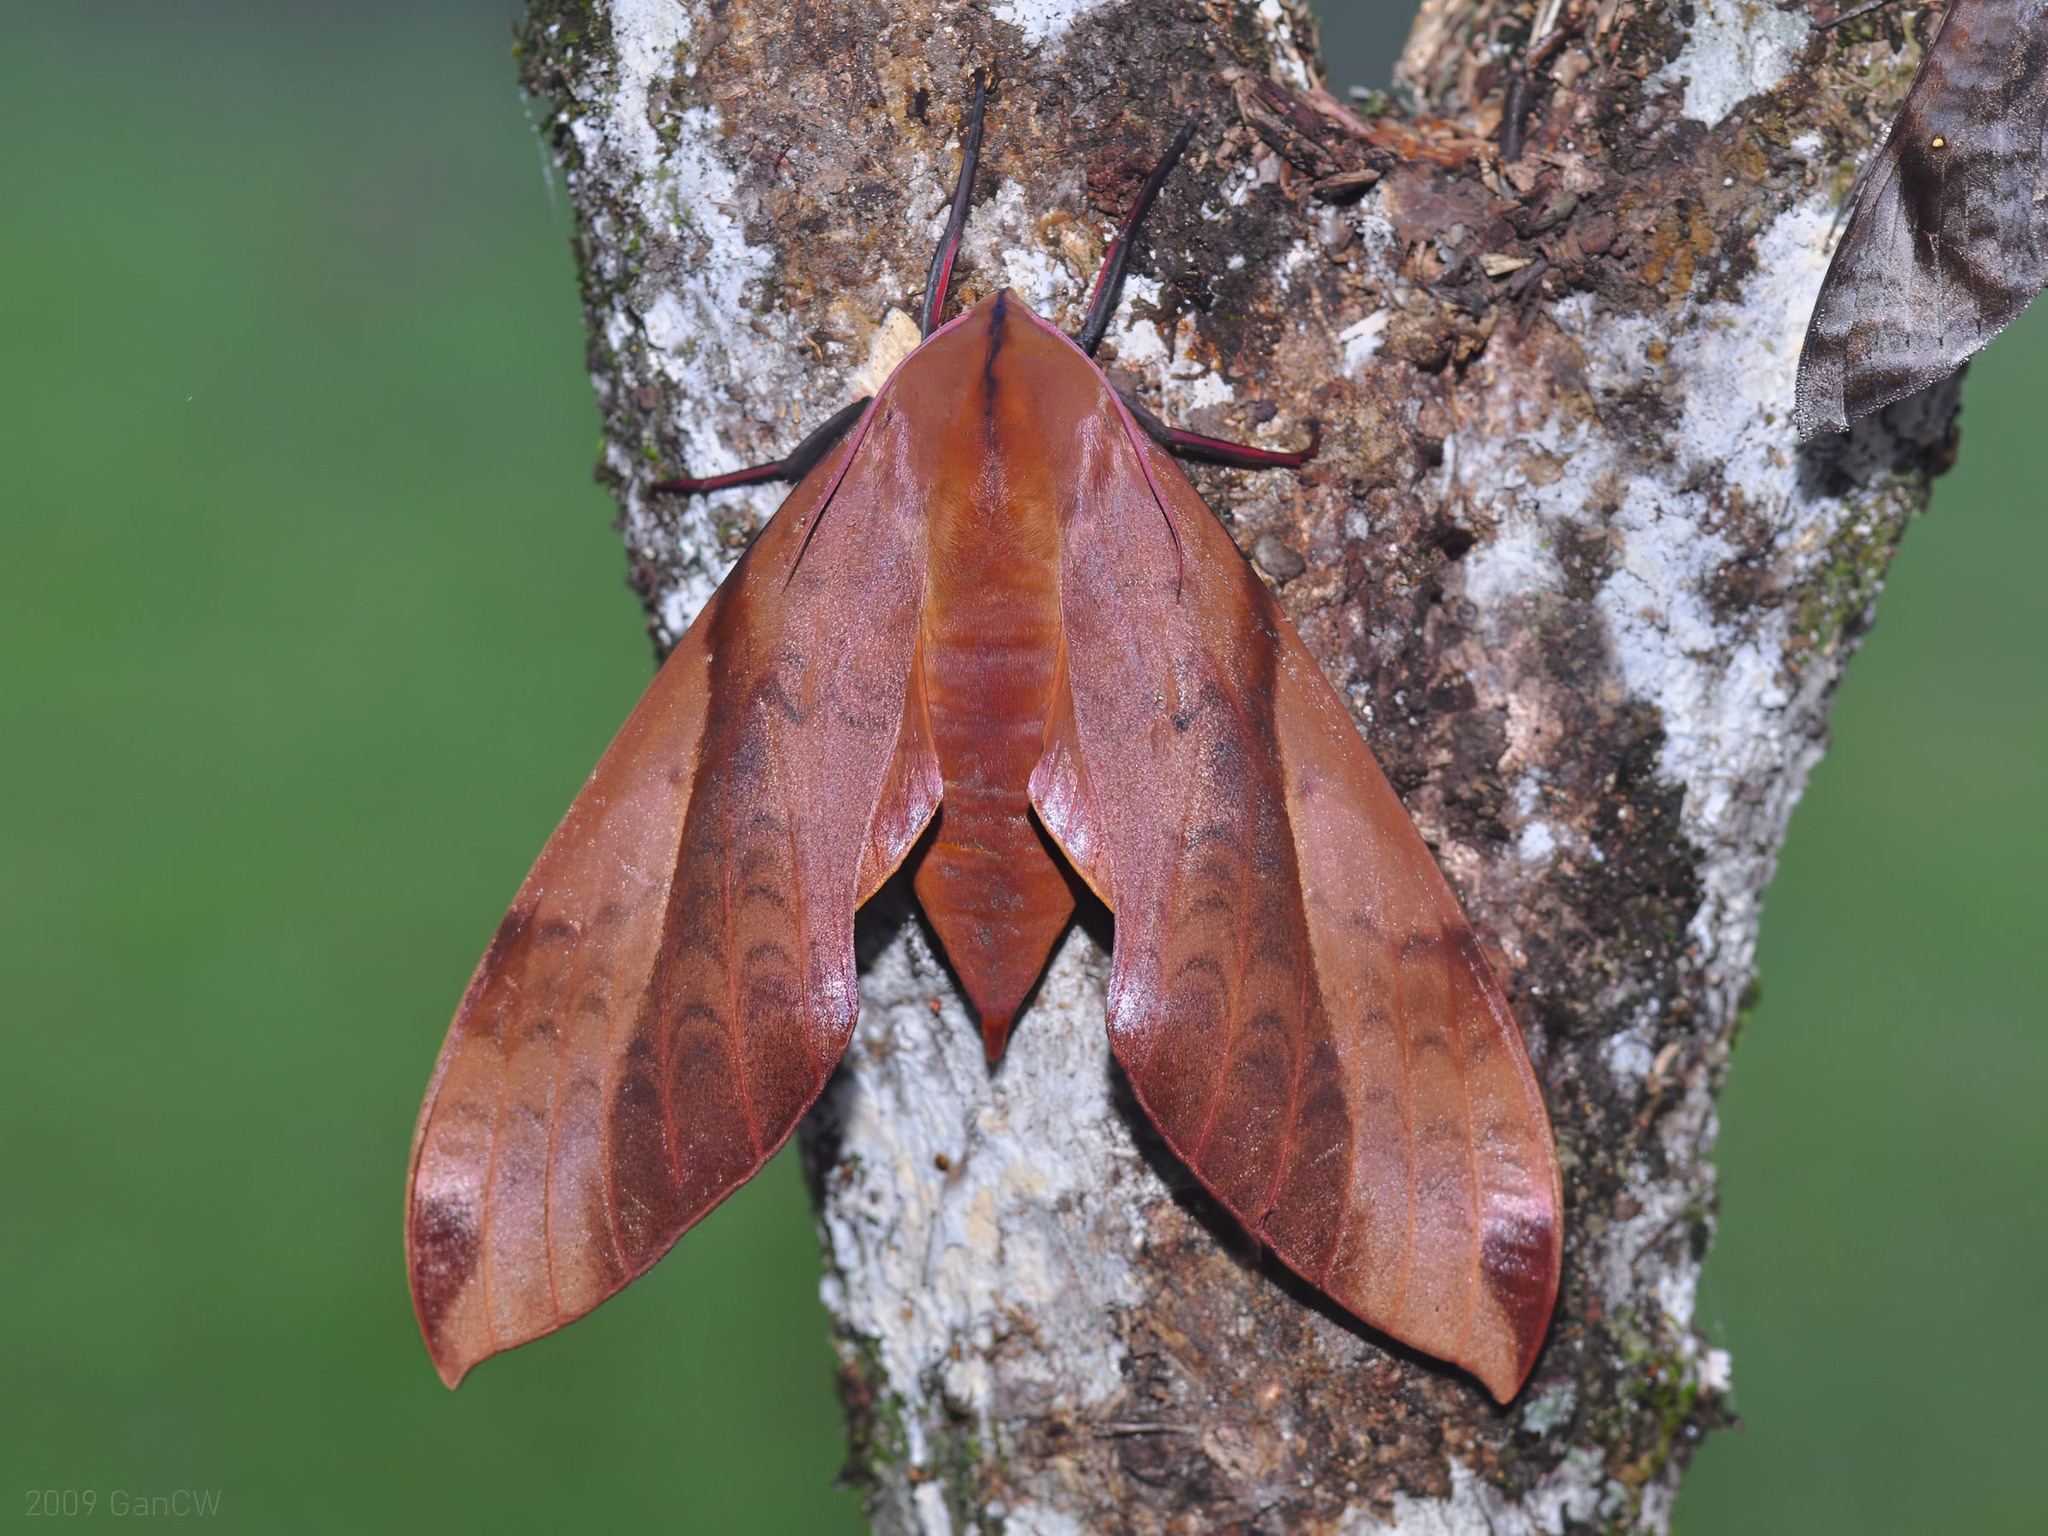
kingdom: Animalia
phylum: Arthropoda
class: Insecta
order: Lepidoptera
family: Sphingidae
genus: Clanis
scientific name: Clanis undulosa
